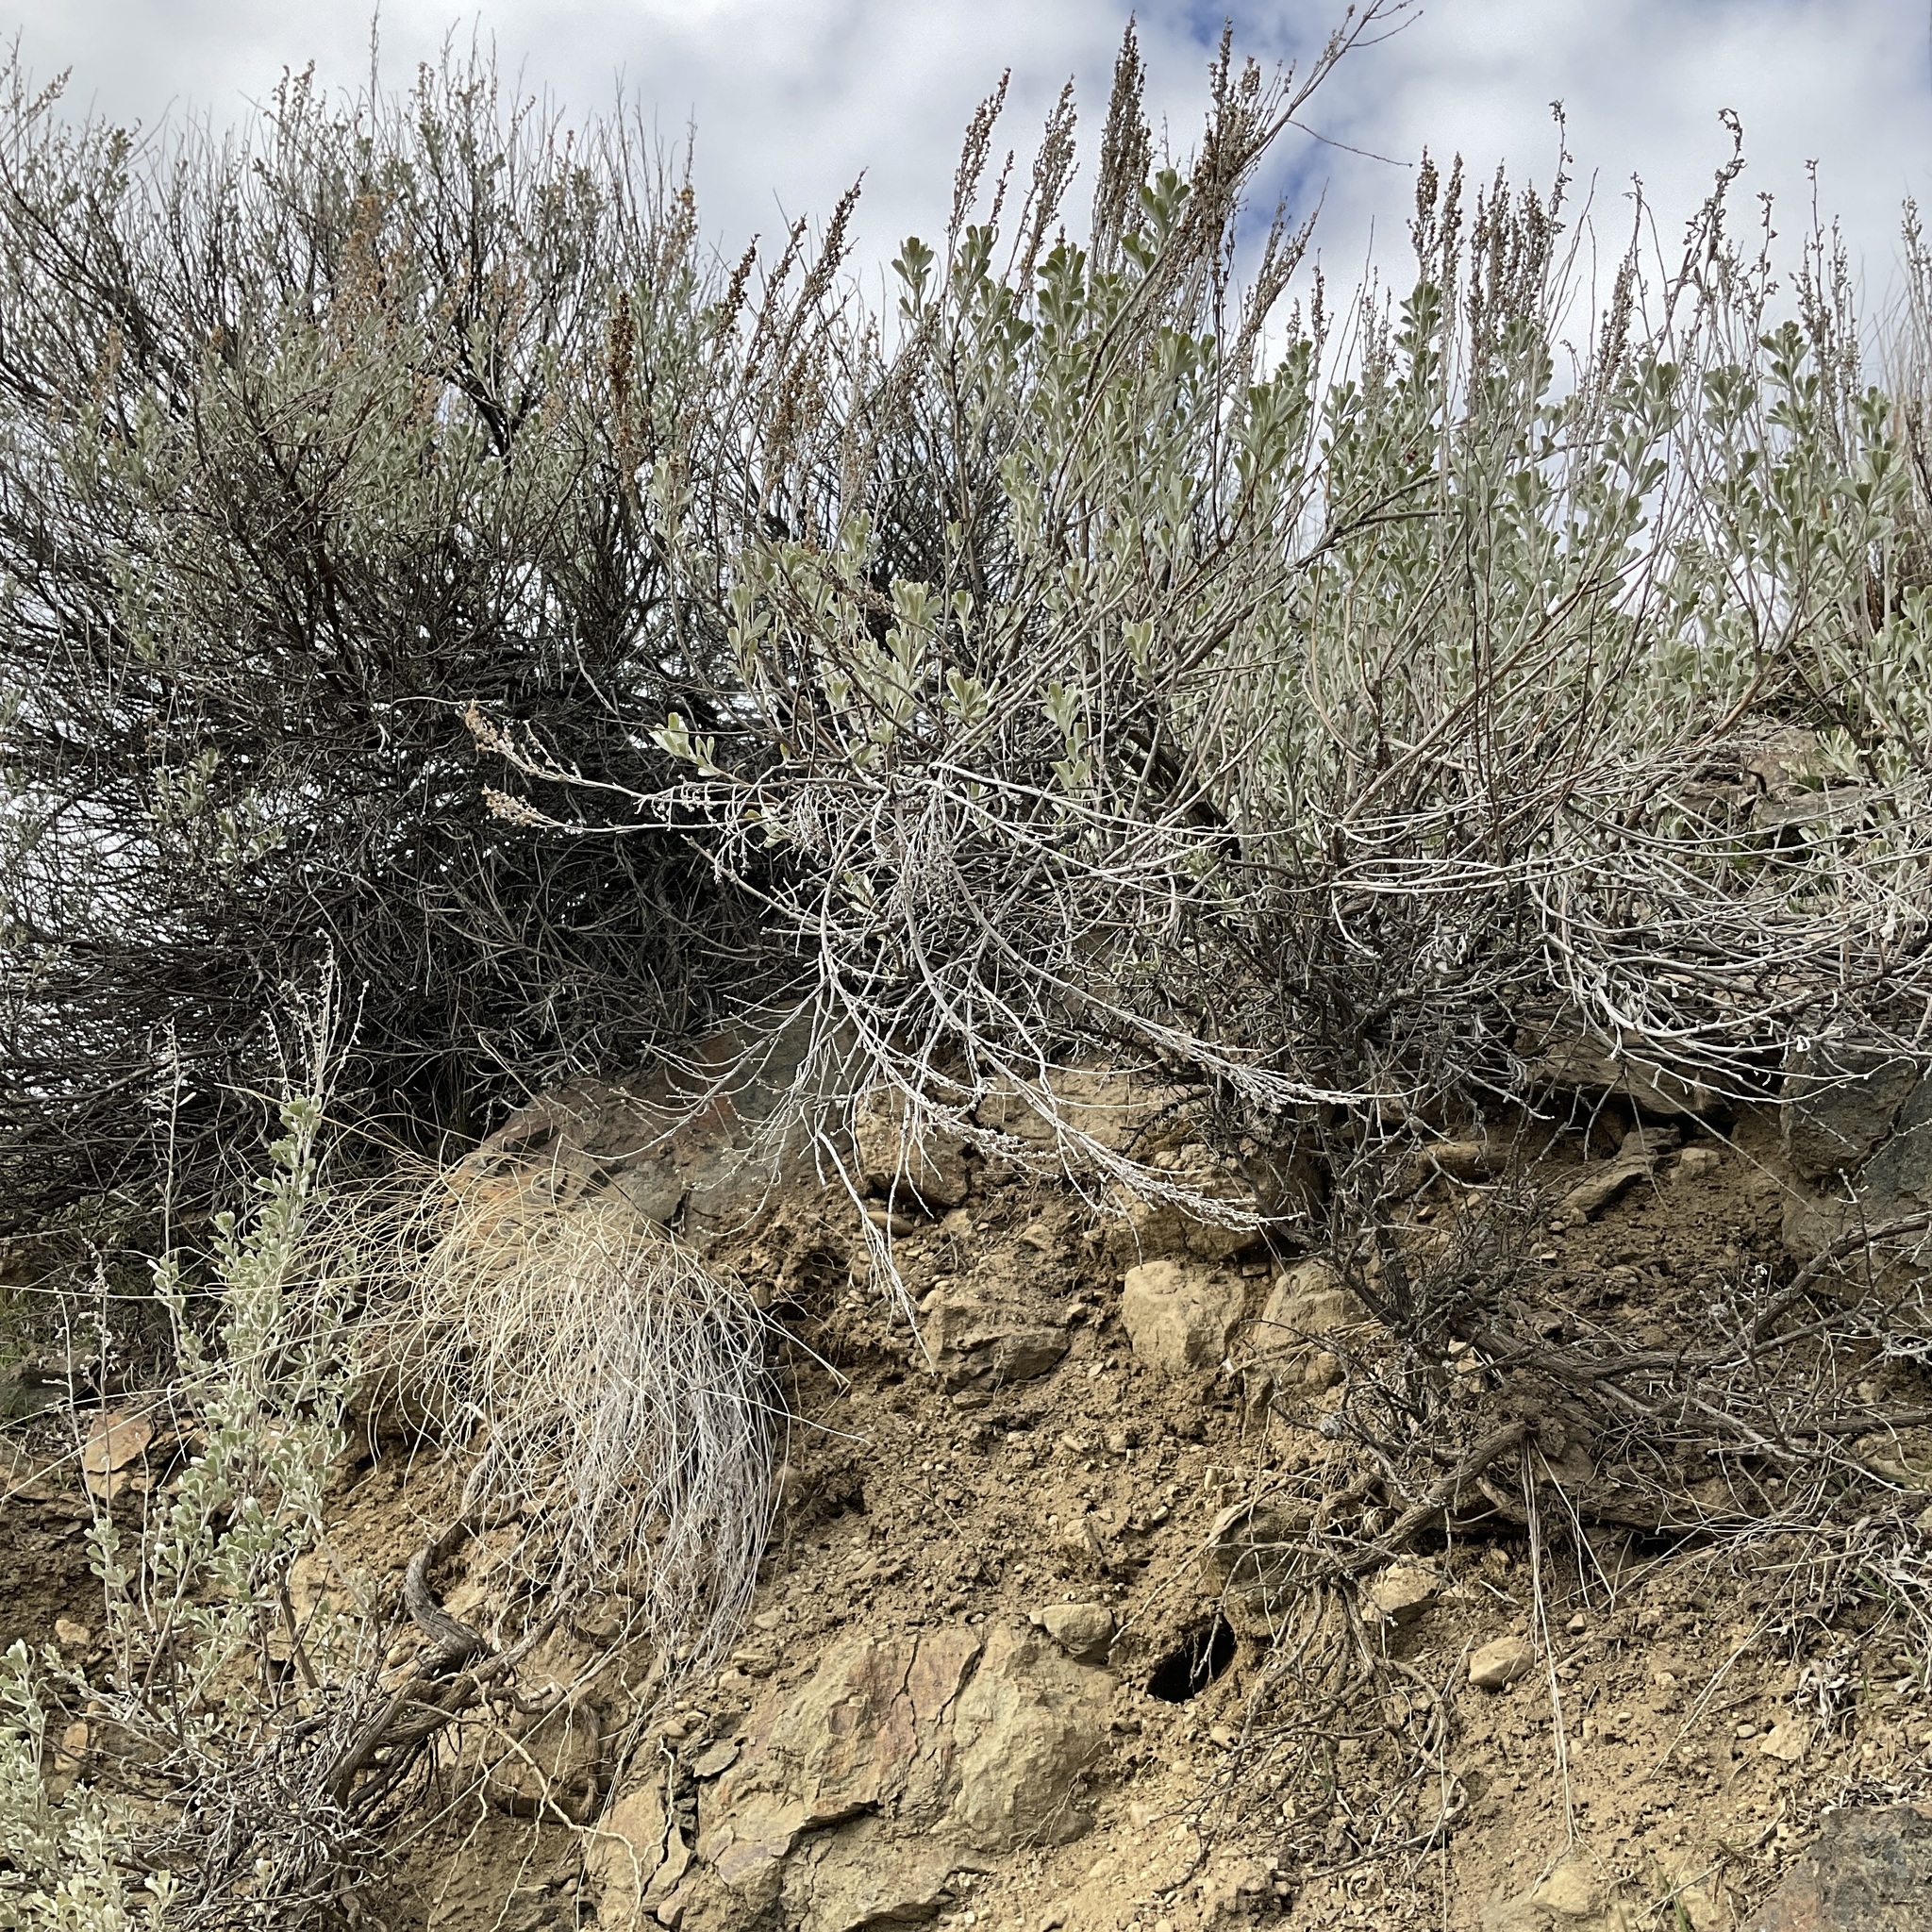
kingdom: Plantae
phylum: Tracheophyta
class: Magnoliopsida
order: Asterales
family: Asteraceae
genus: Artemisia
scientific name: Artemisia tridentata
